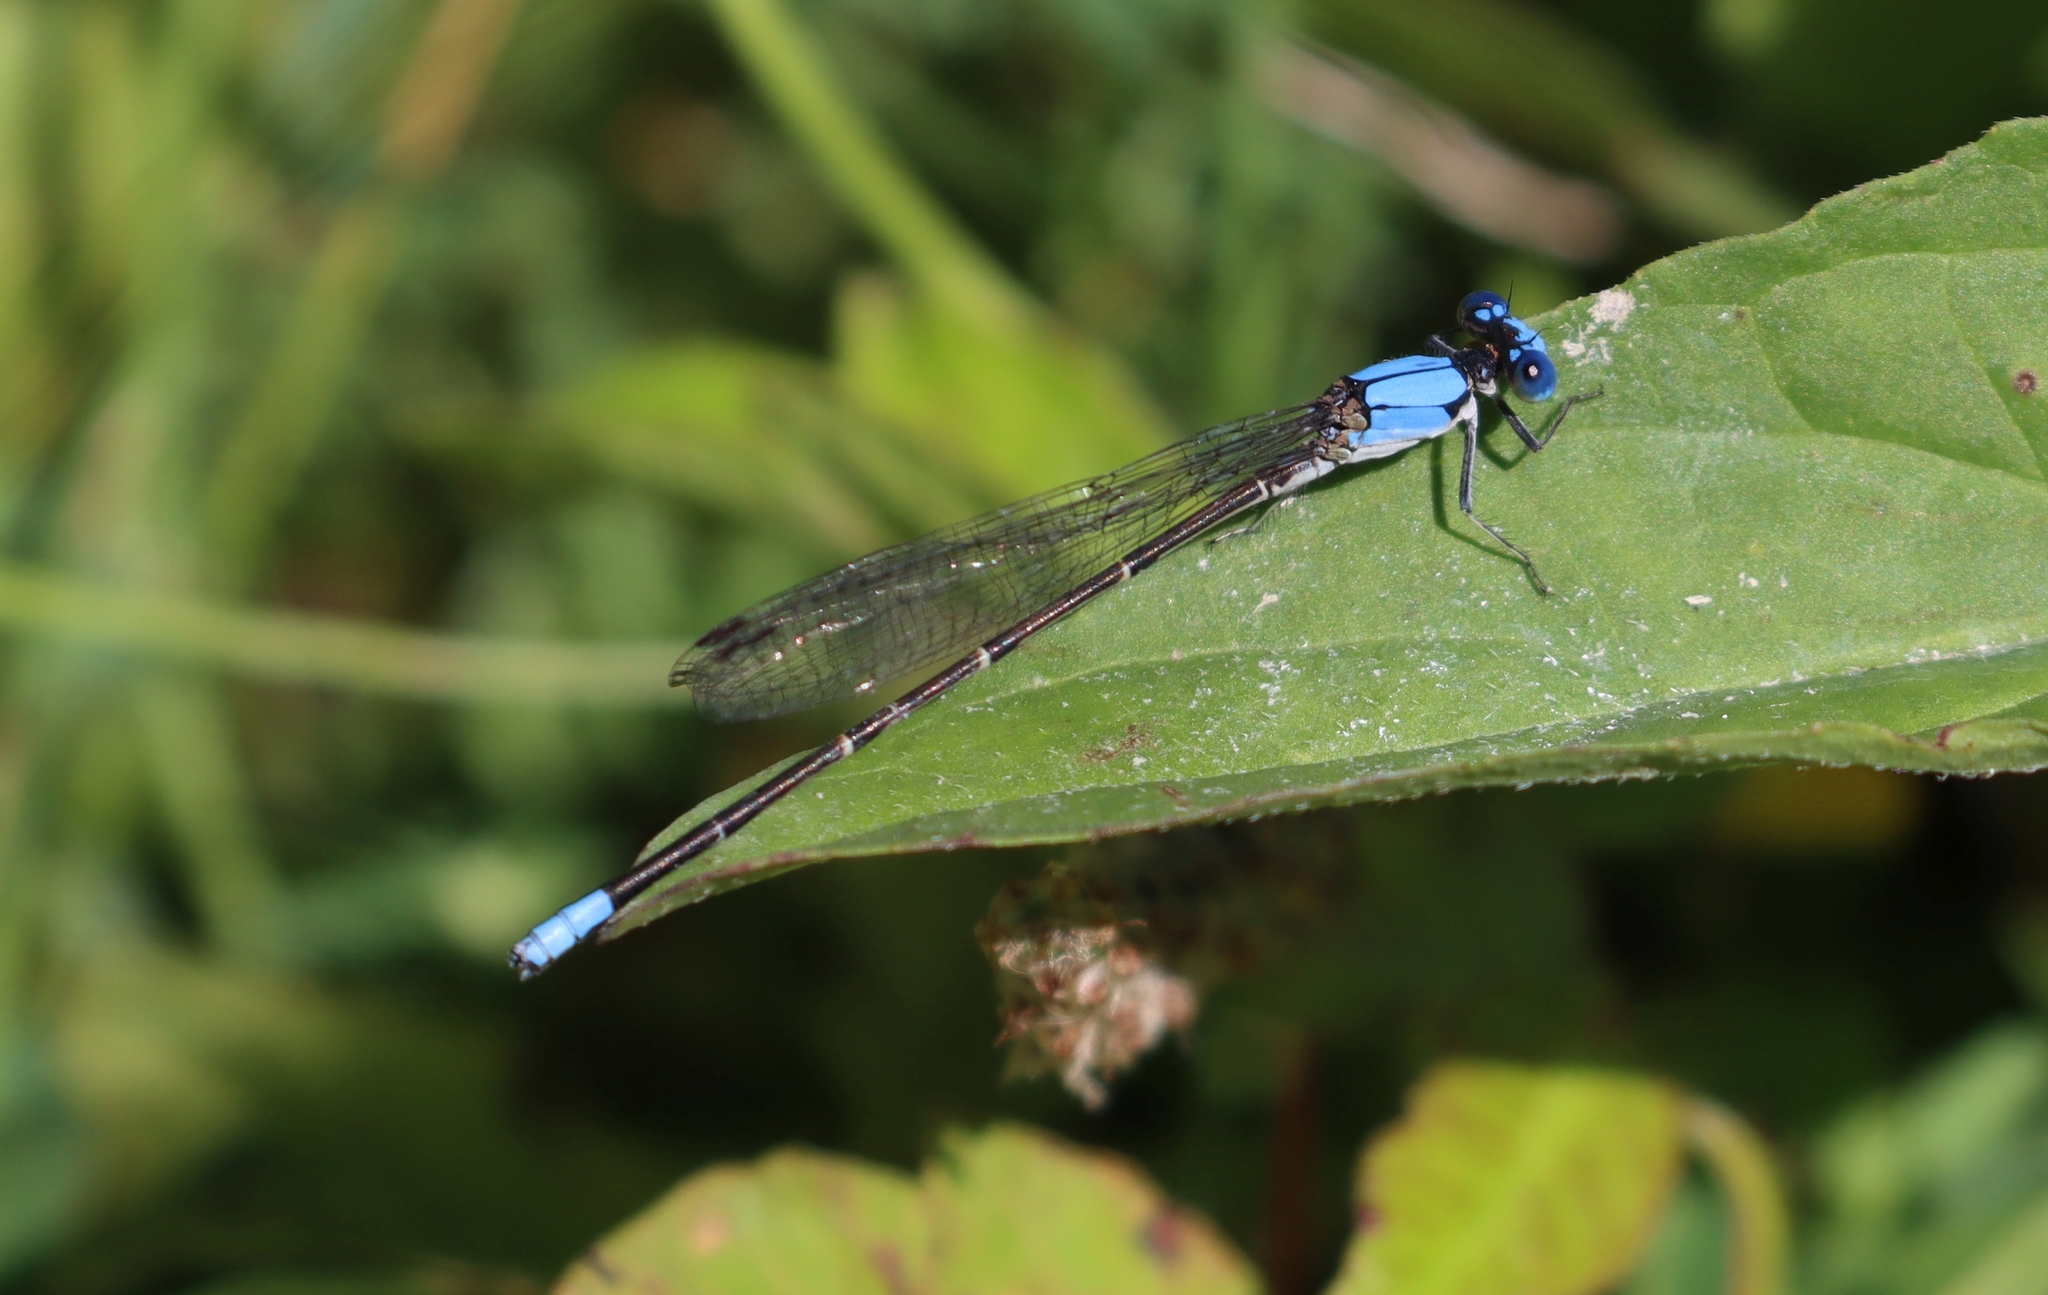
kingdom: Animalia
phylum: Arthropoda
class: Insecta
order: Odonata
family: Coenagrionidae
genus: Argia
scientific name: Argia apicalis
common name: Blue-fronted dancer
